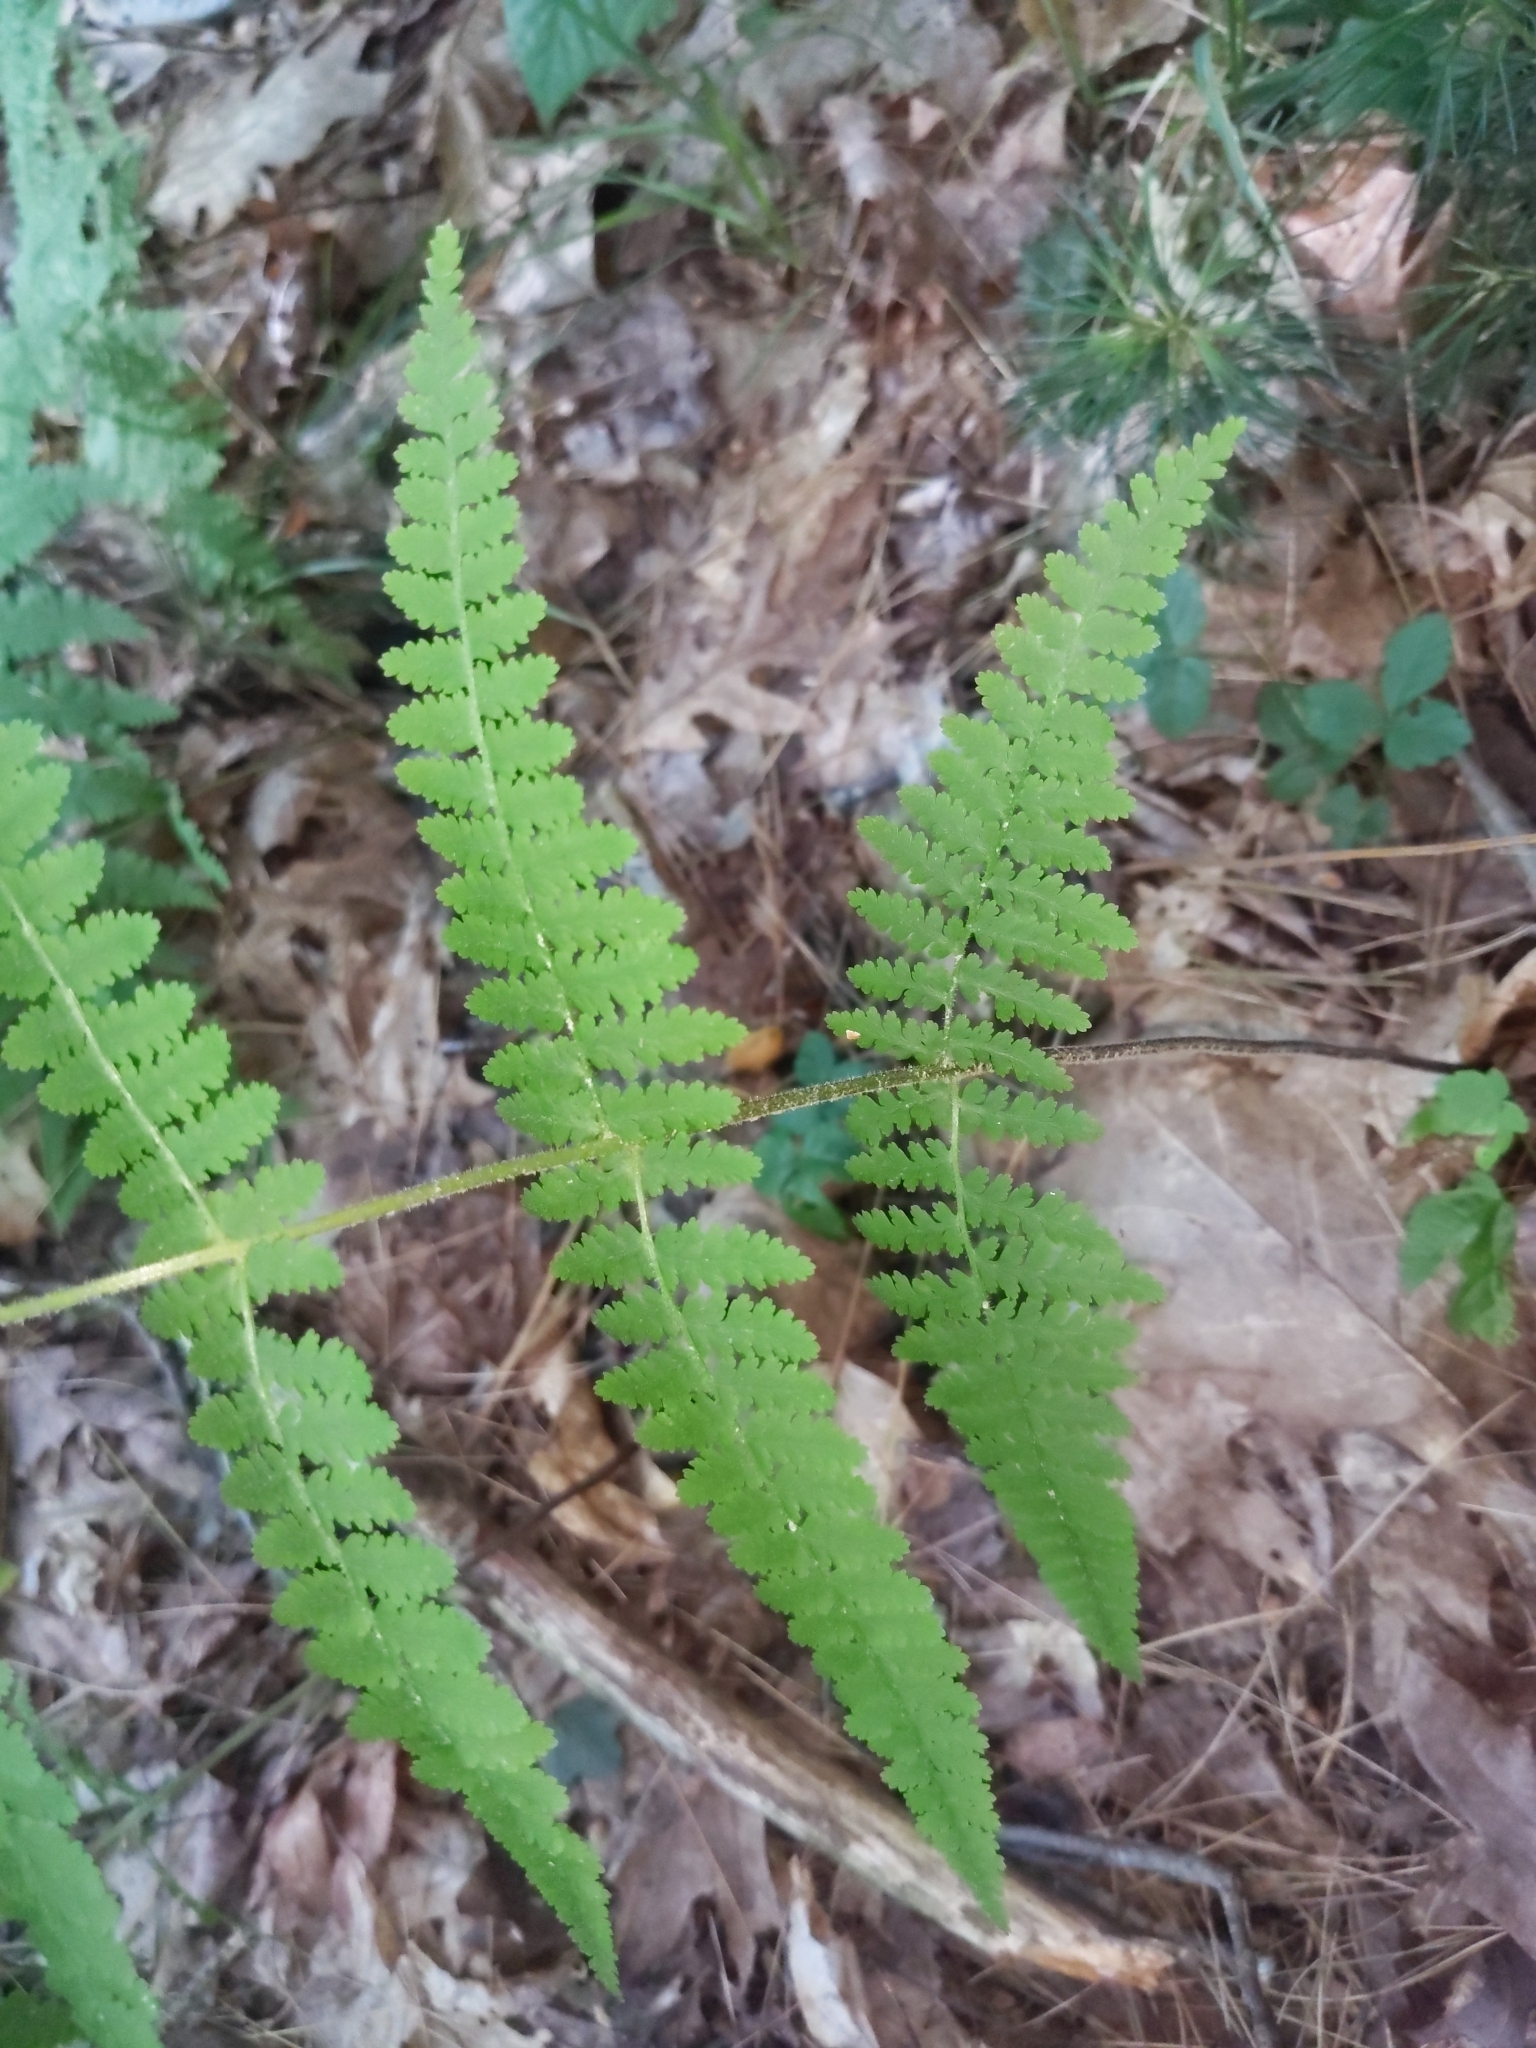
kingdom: Plantae
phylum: Tracheophyta
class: Polypodiopsida
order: Polypodiales
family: Dennstaedtiaceae
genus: Sitobolium
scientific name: Sitobolium punctilobum
